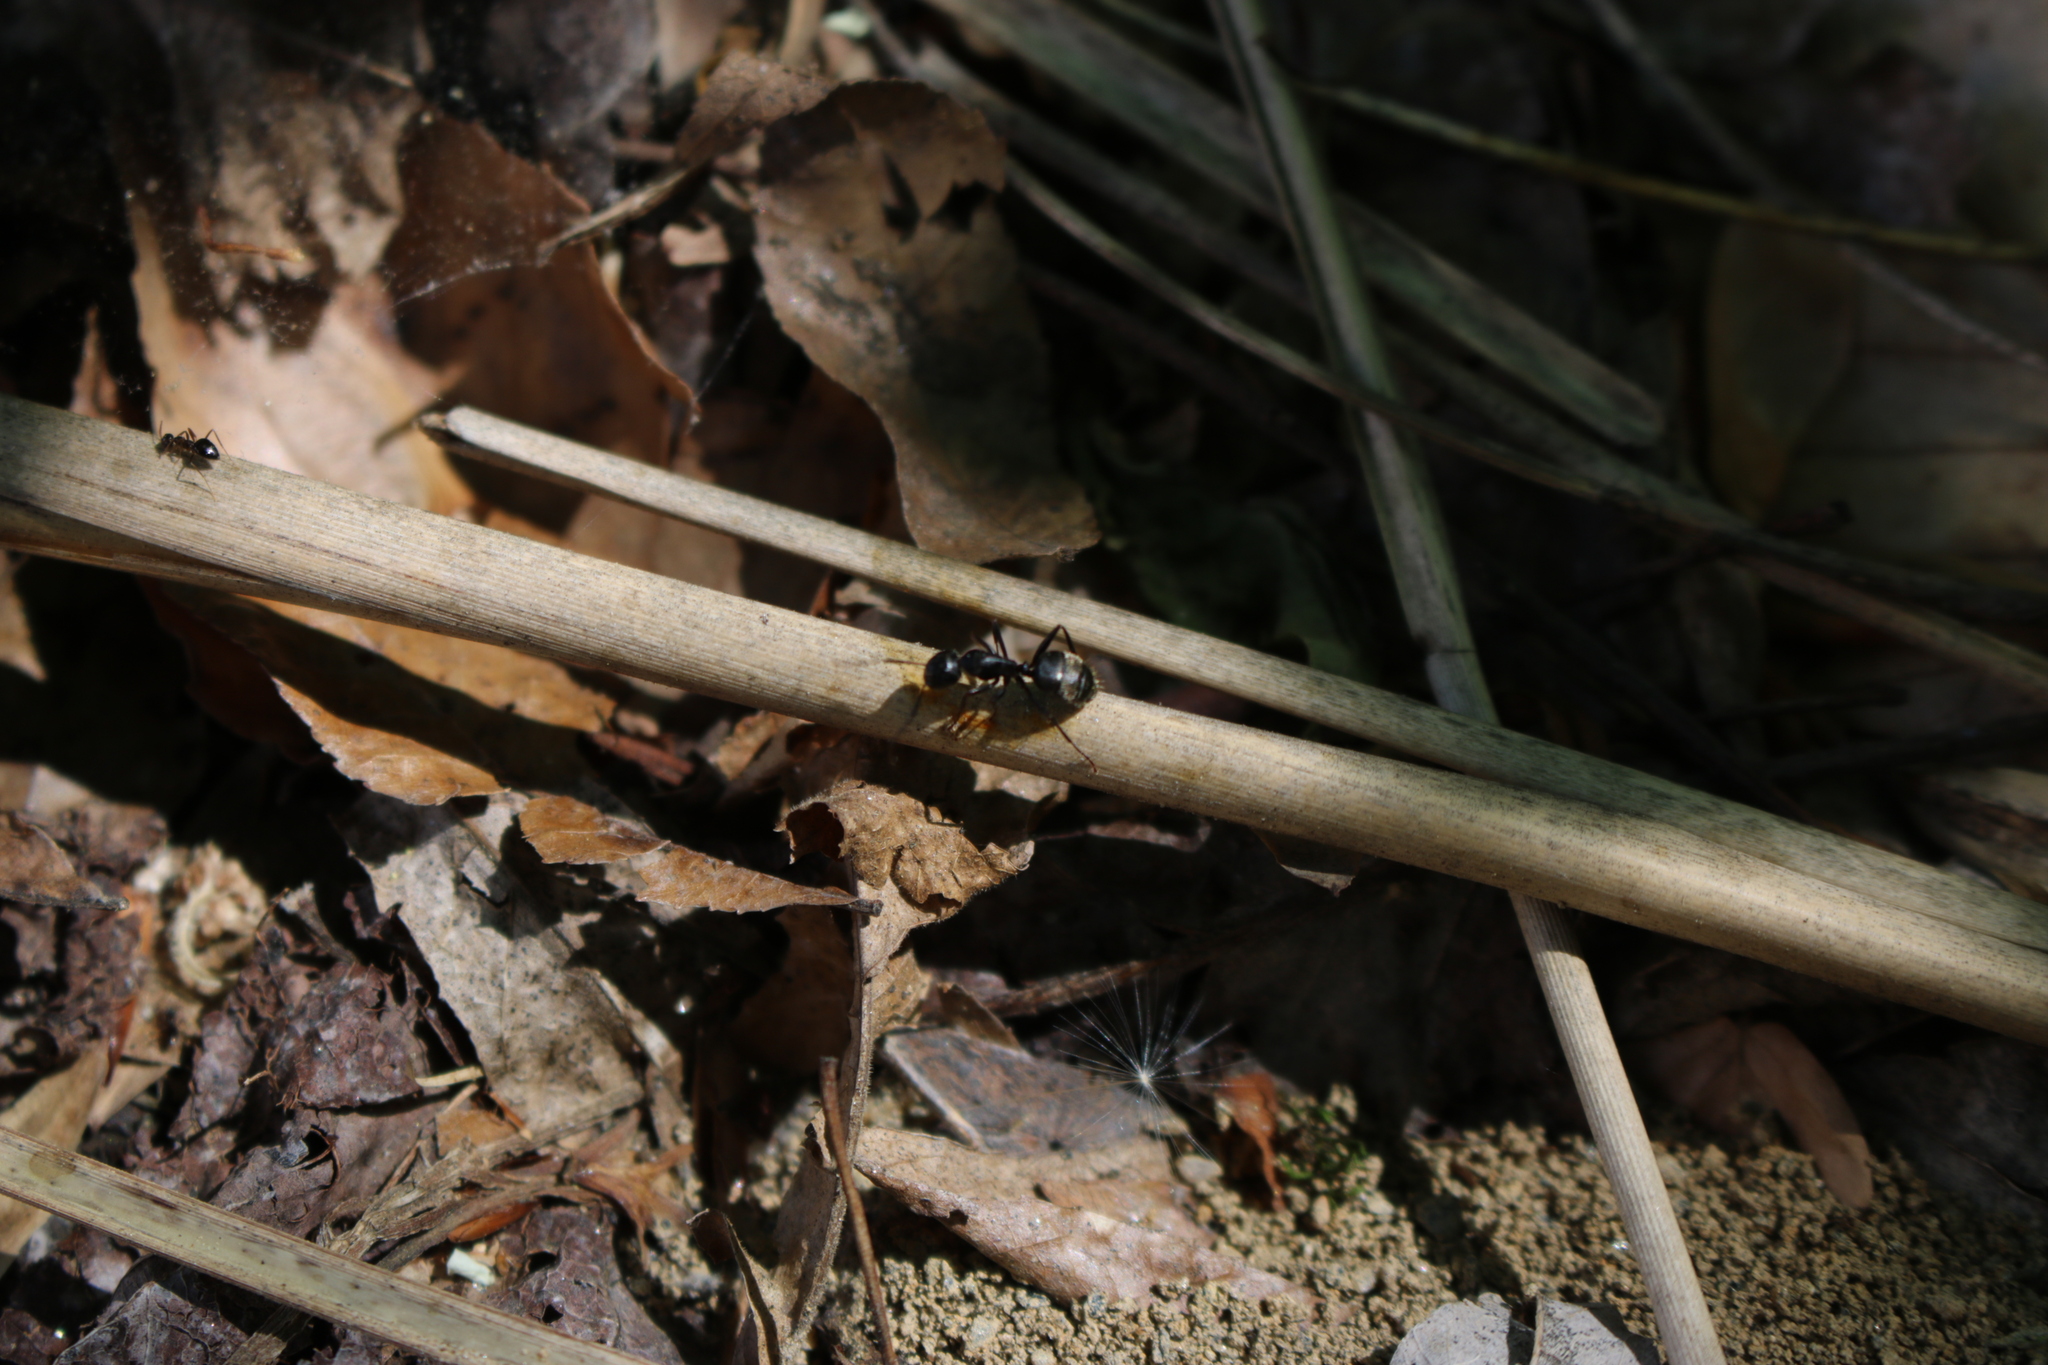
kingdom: Animalia
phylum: Arthropoda
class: Insecta
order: Hymenoptera
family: Formicidae
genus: Camponotus
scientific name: Camponotus pennsylvanicus
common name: Black carpenter ant
